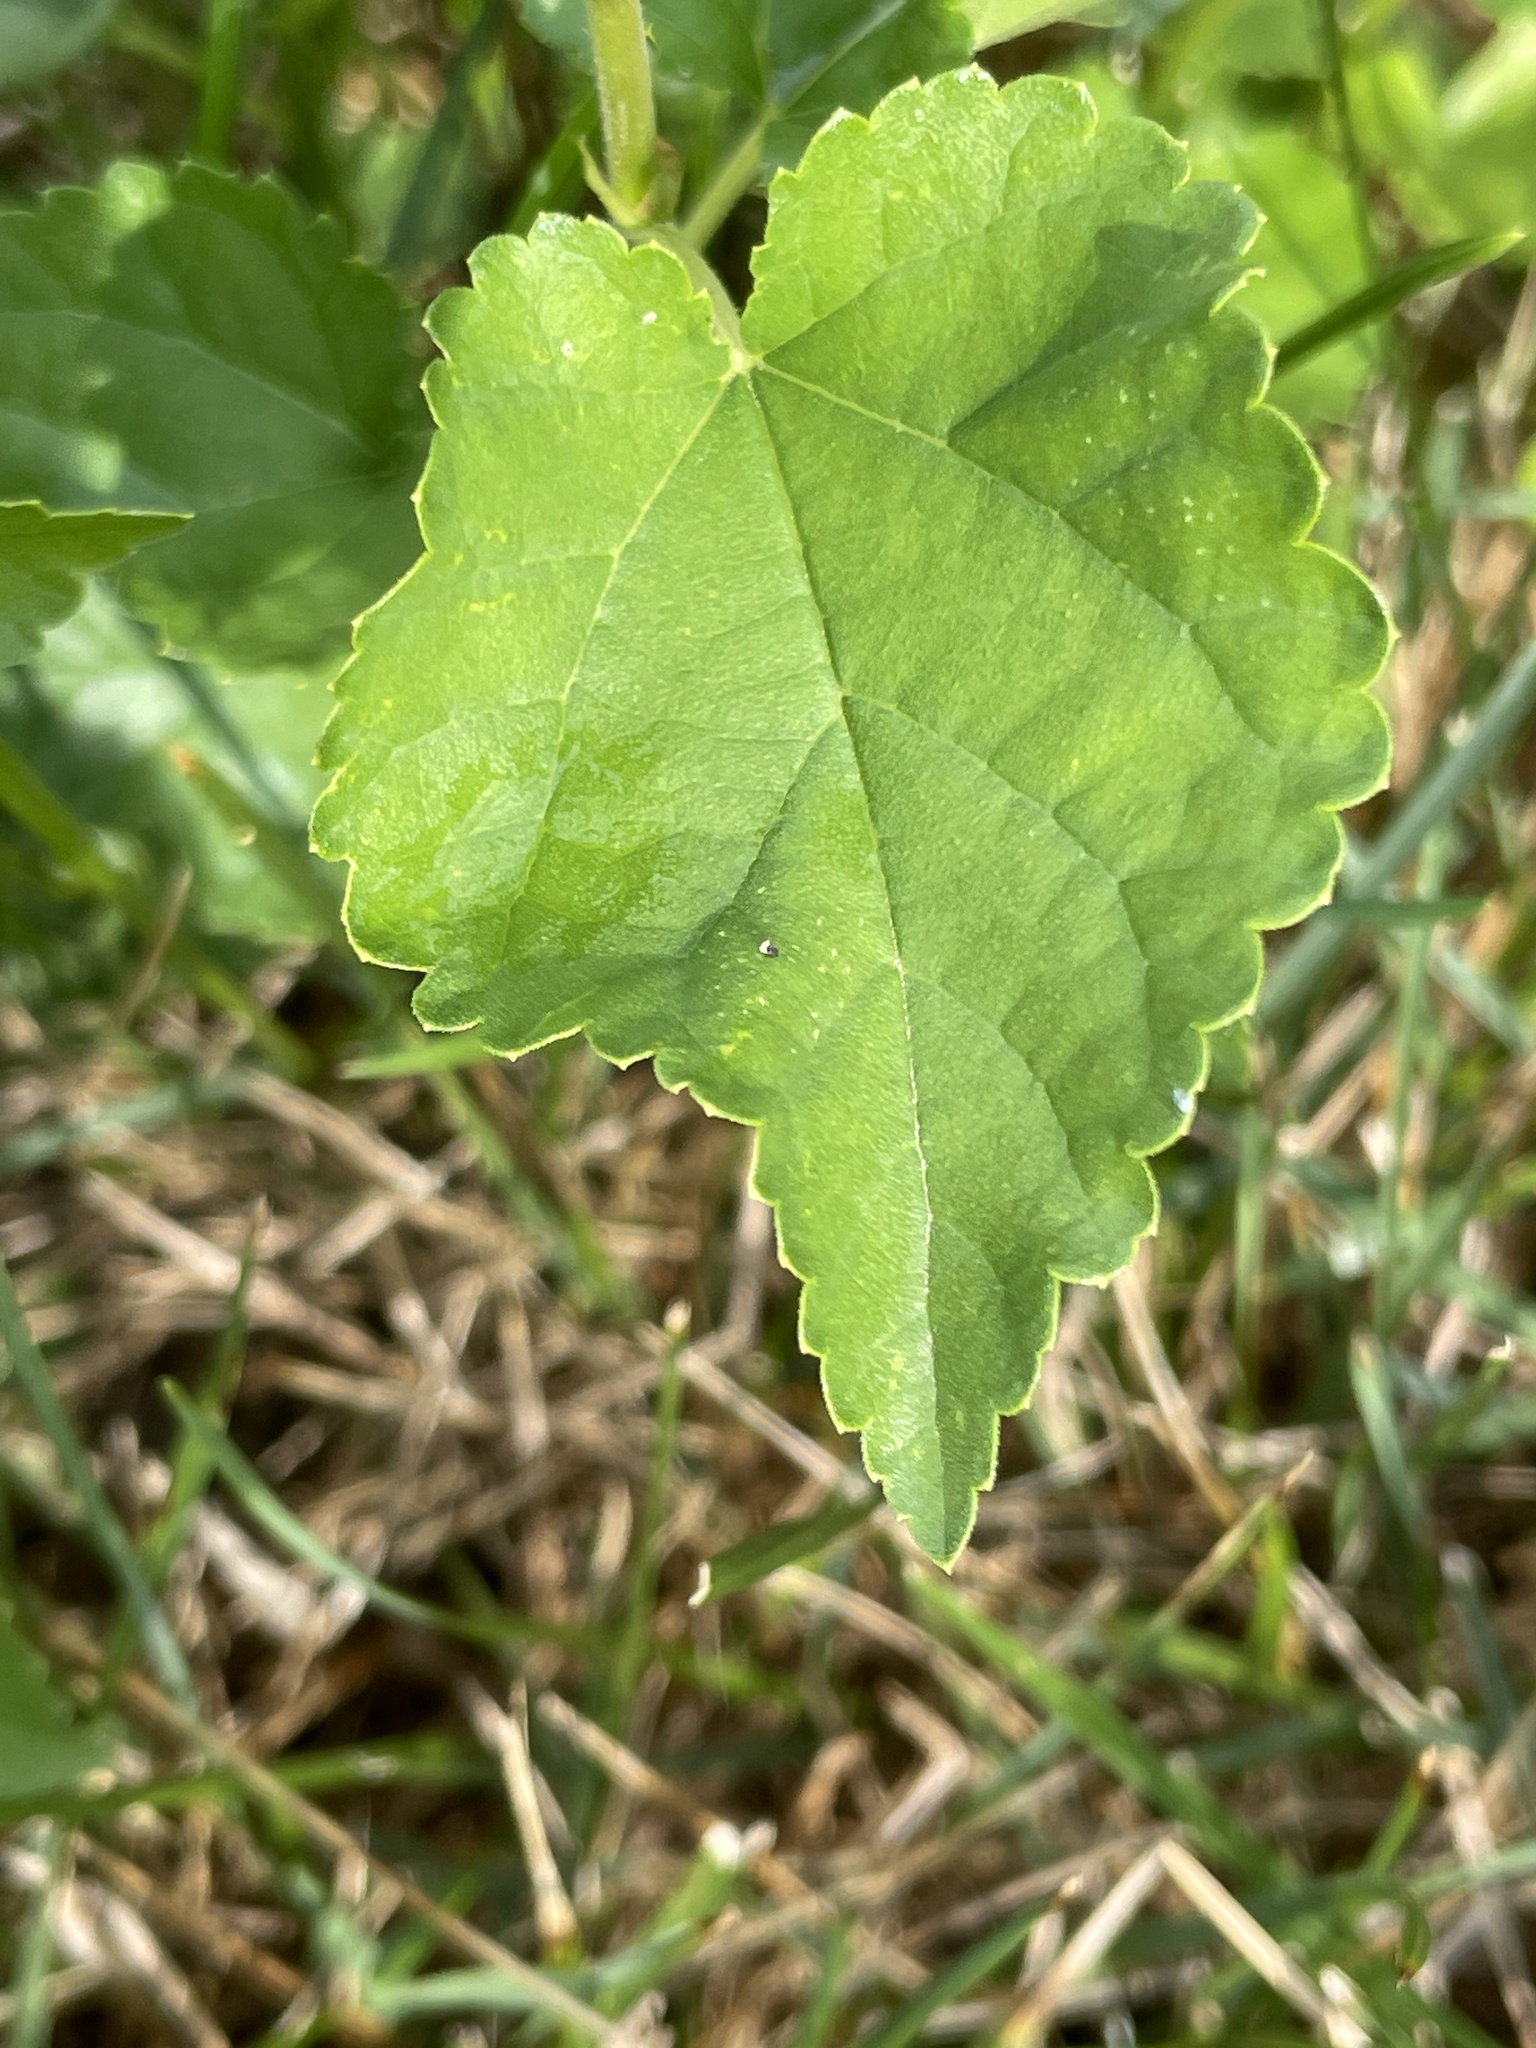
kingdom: Plantae
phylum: Tracheophyta
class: Magnoliopsida
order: Rosales
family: Moraceae
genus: Morus
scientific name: Morus alba
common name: White mulberry
